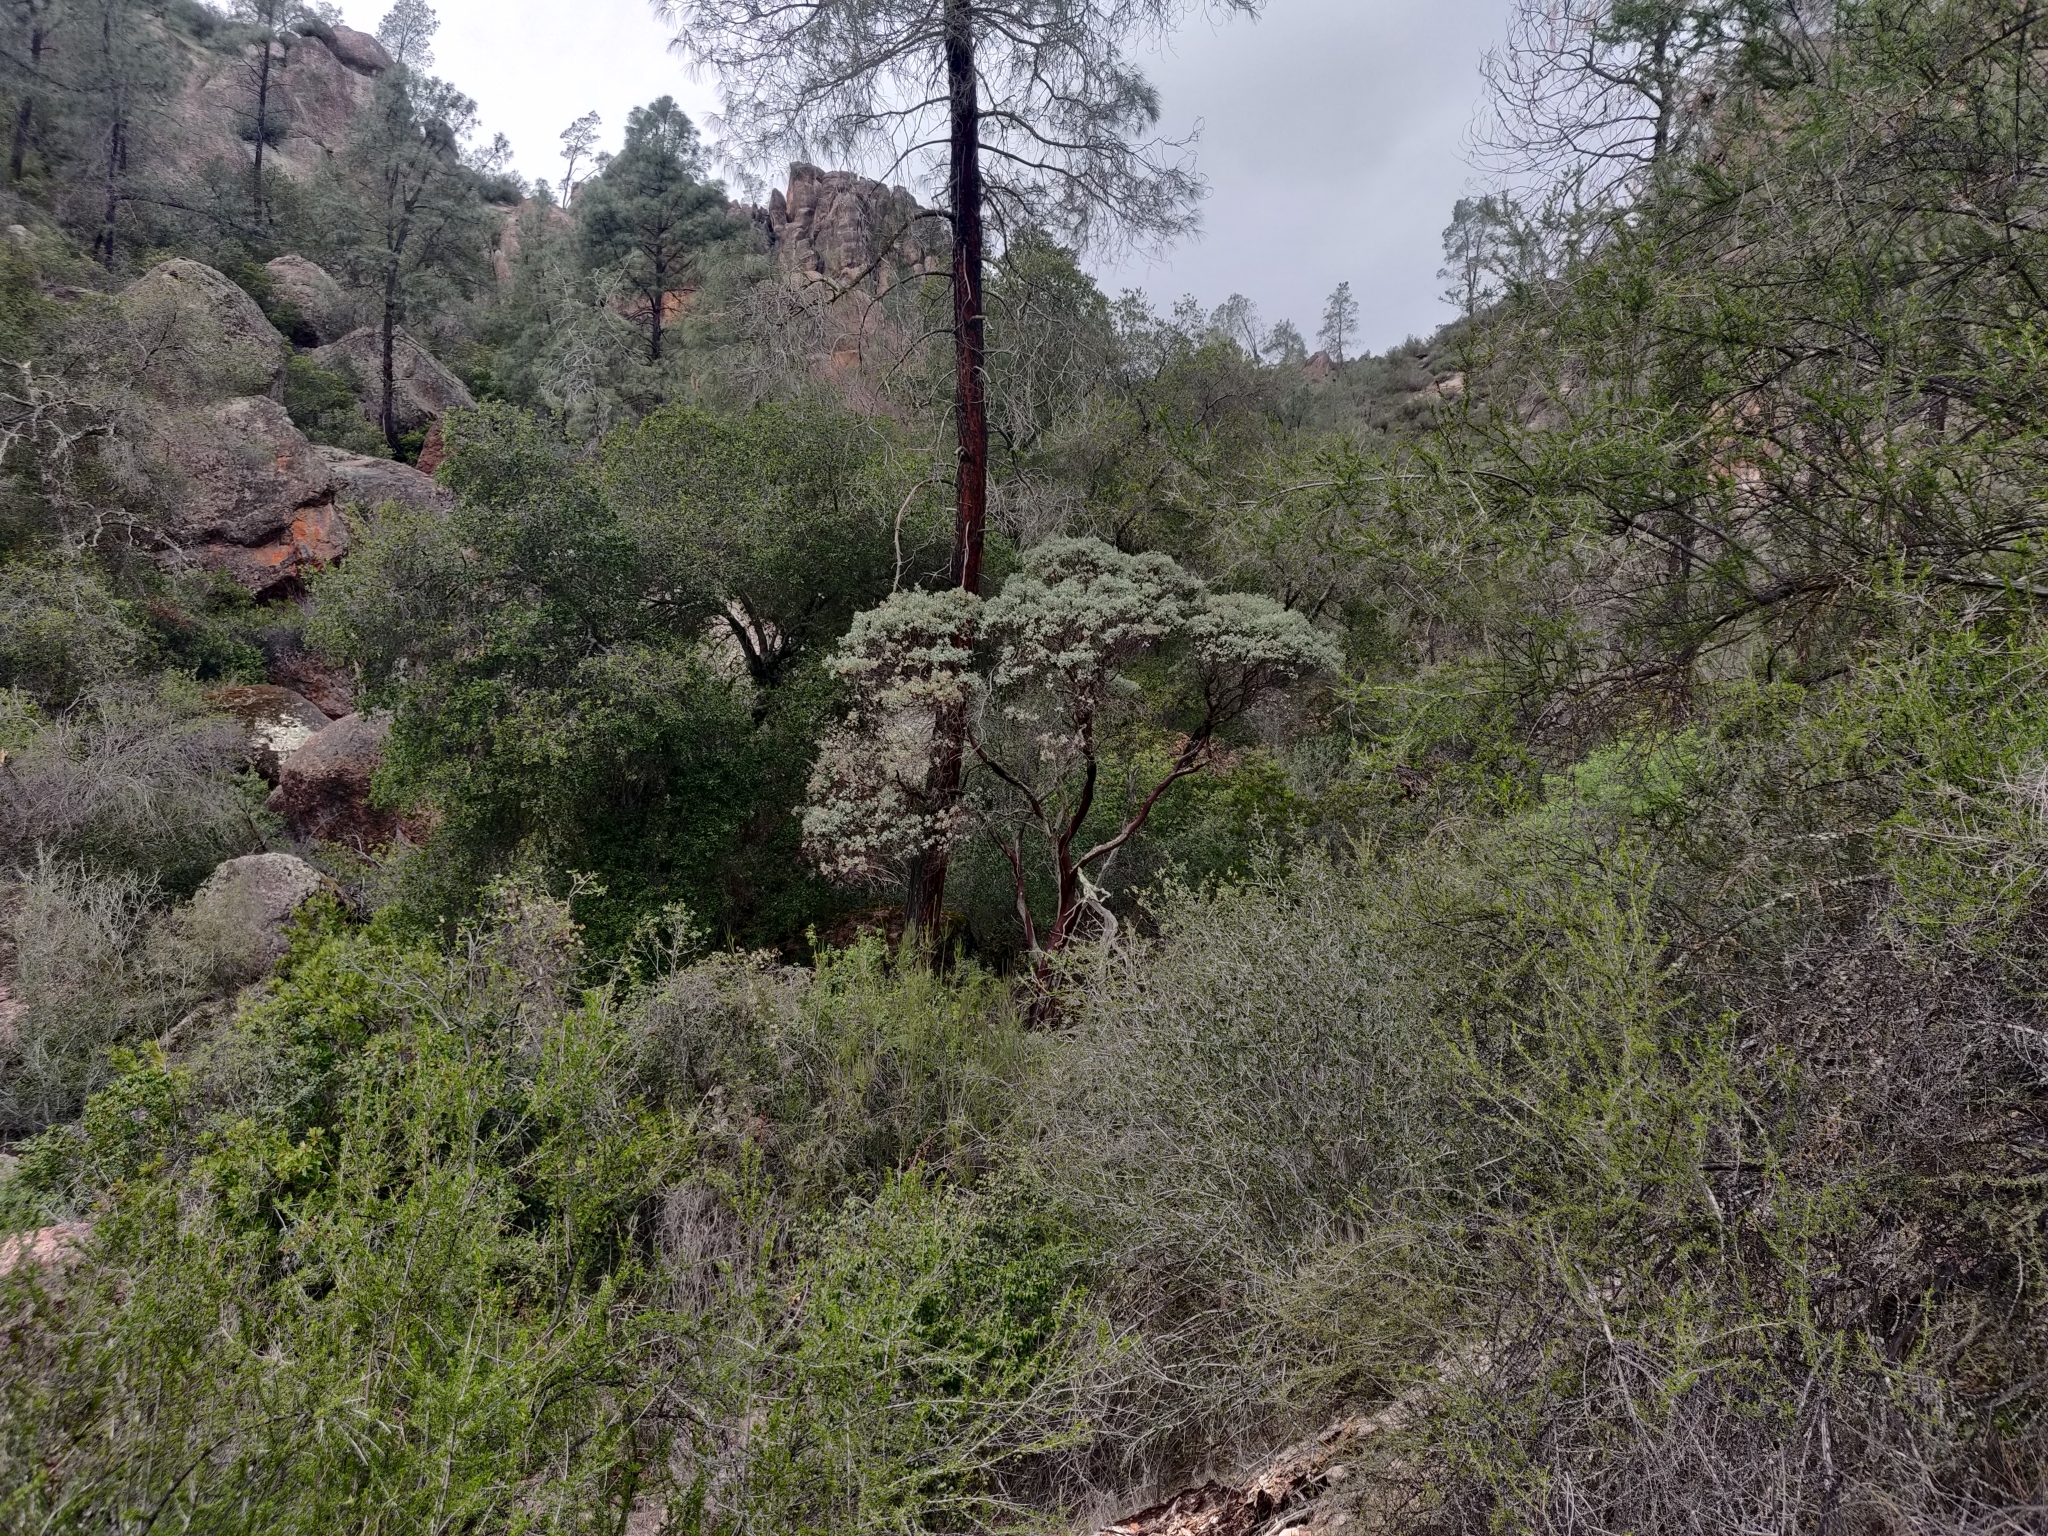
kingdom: Plantae
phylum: Tracheophyta
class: Magnoliopsida
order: Ericales
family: Ericaceae
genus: Arctostaphylos
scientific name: Arctostaphylos glauca
